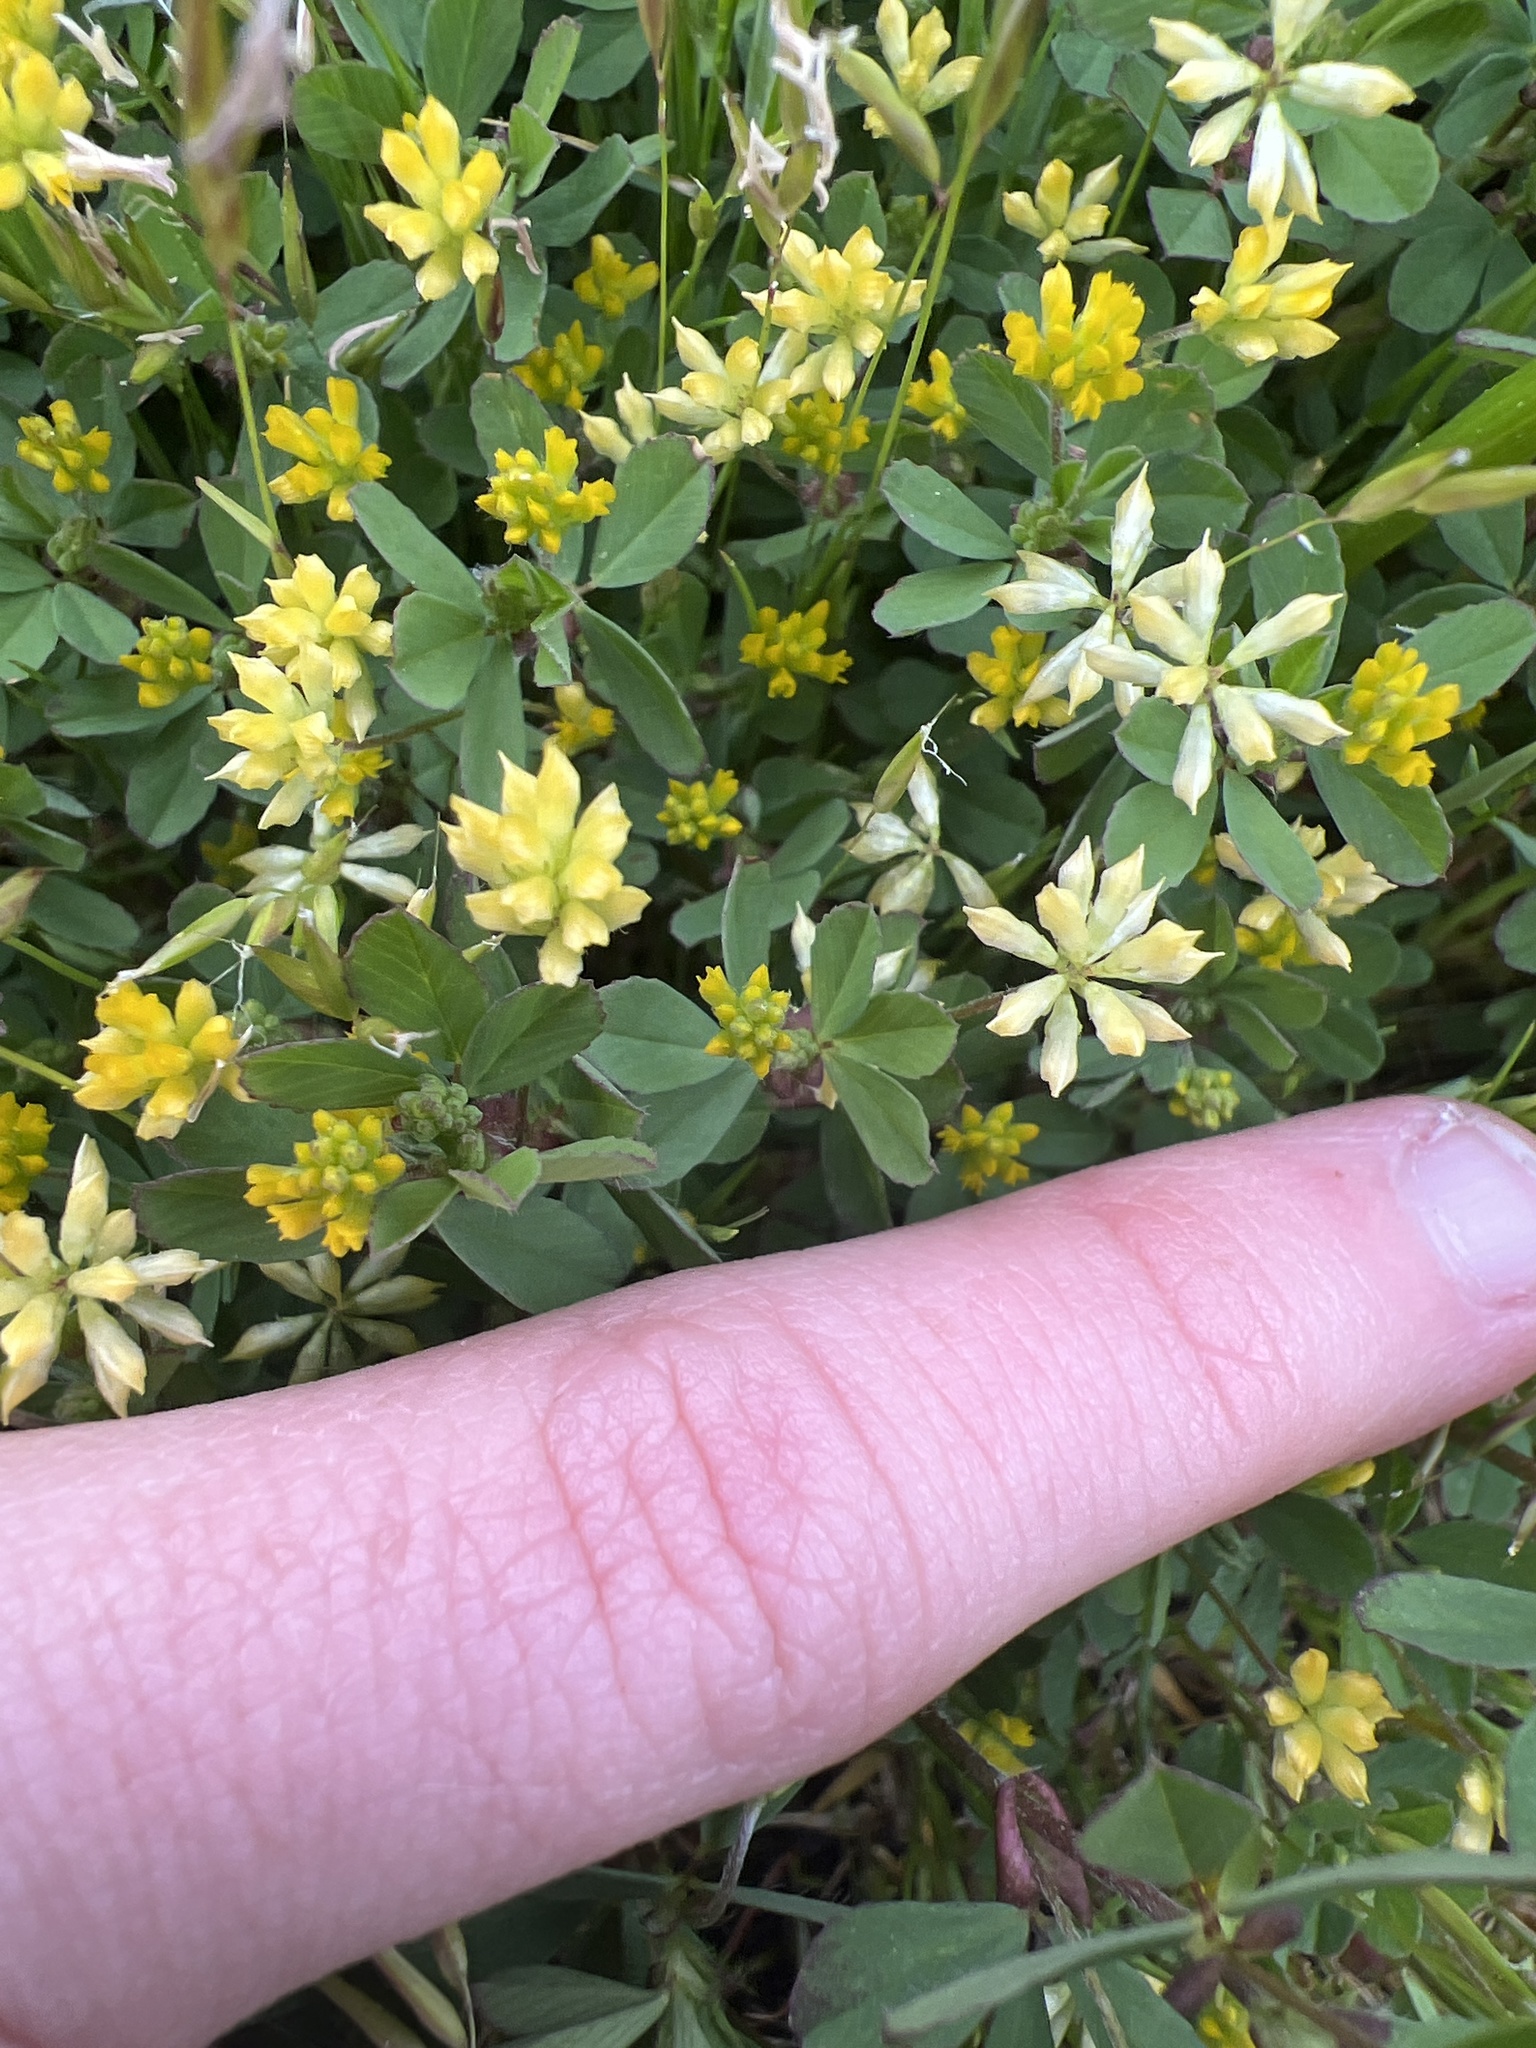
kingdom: Plantae
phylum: Tracheophyta
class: Magnoliopsida
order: Fabales
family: Fabaceae
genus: Trifolium
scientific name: Trifolium dubium
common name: Suckling clover
